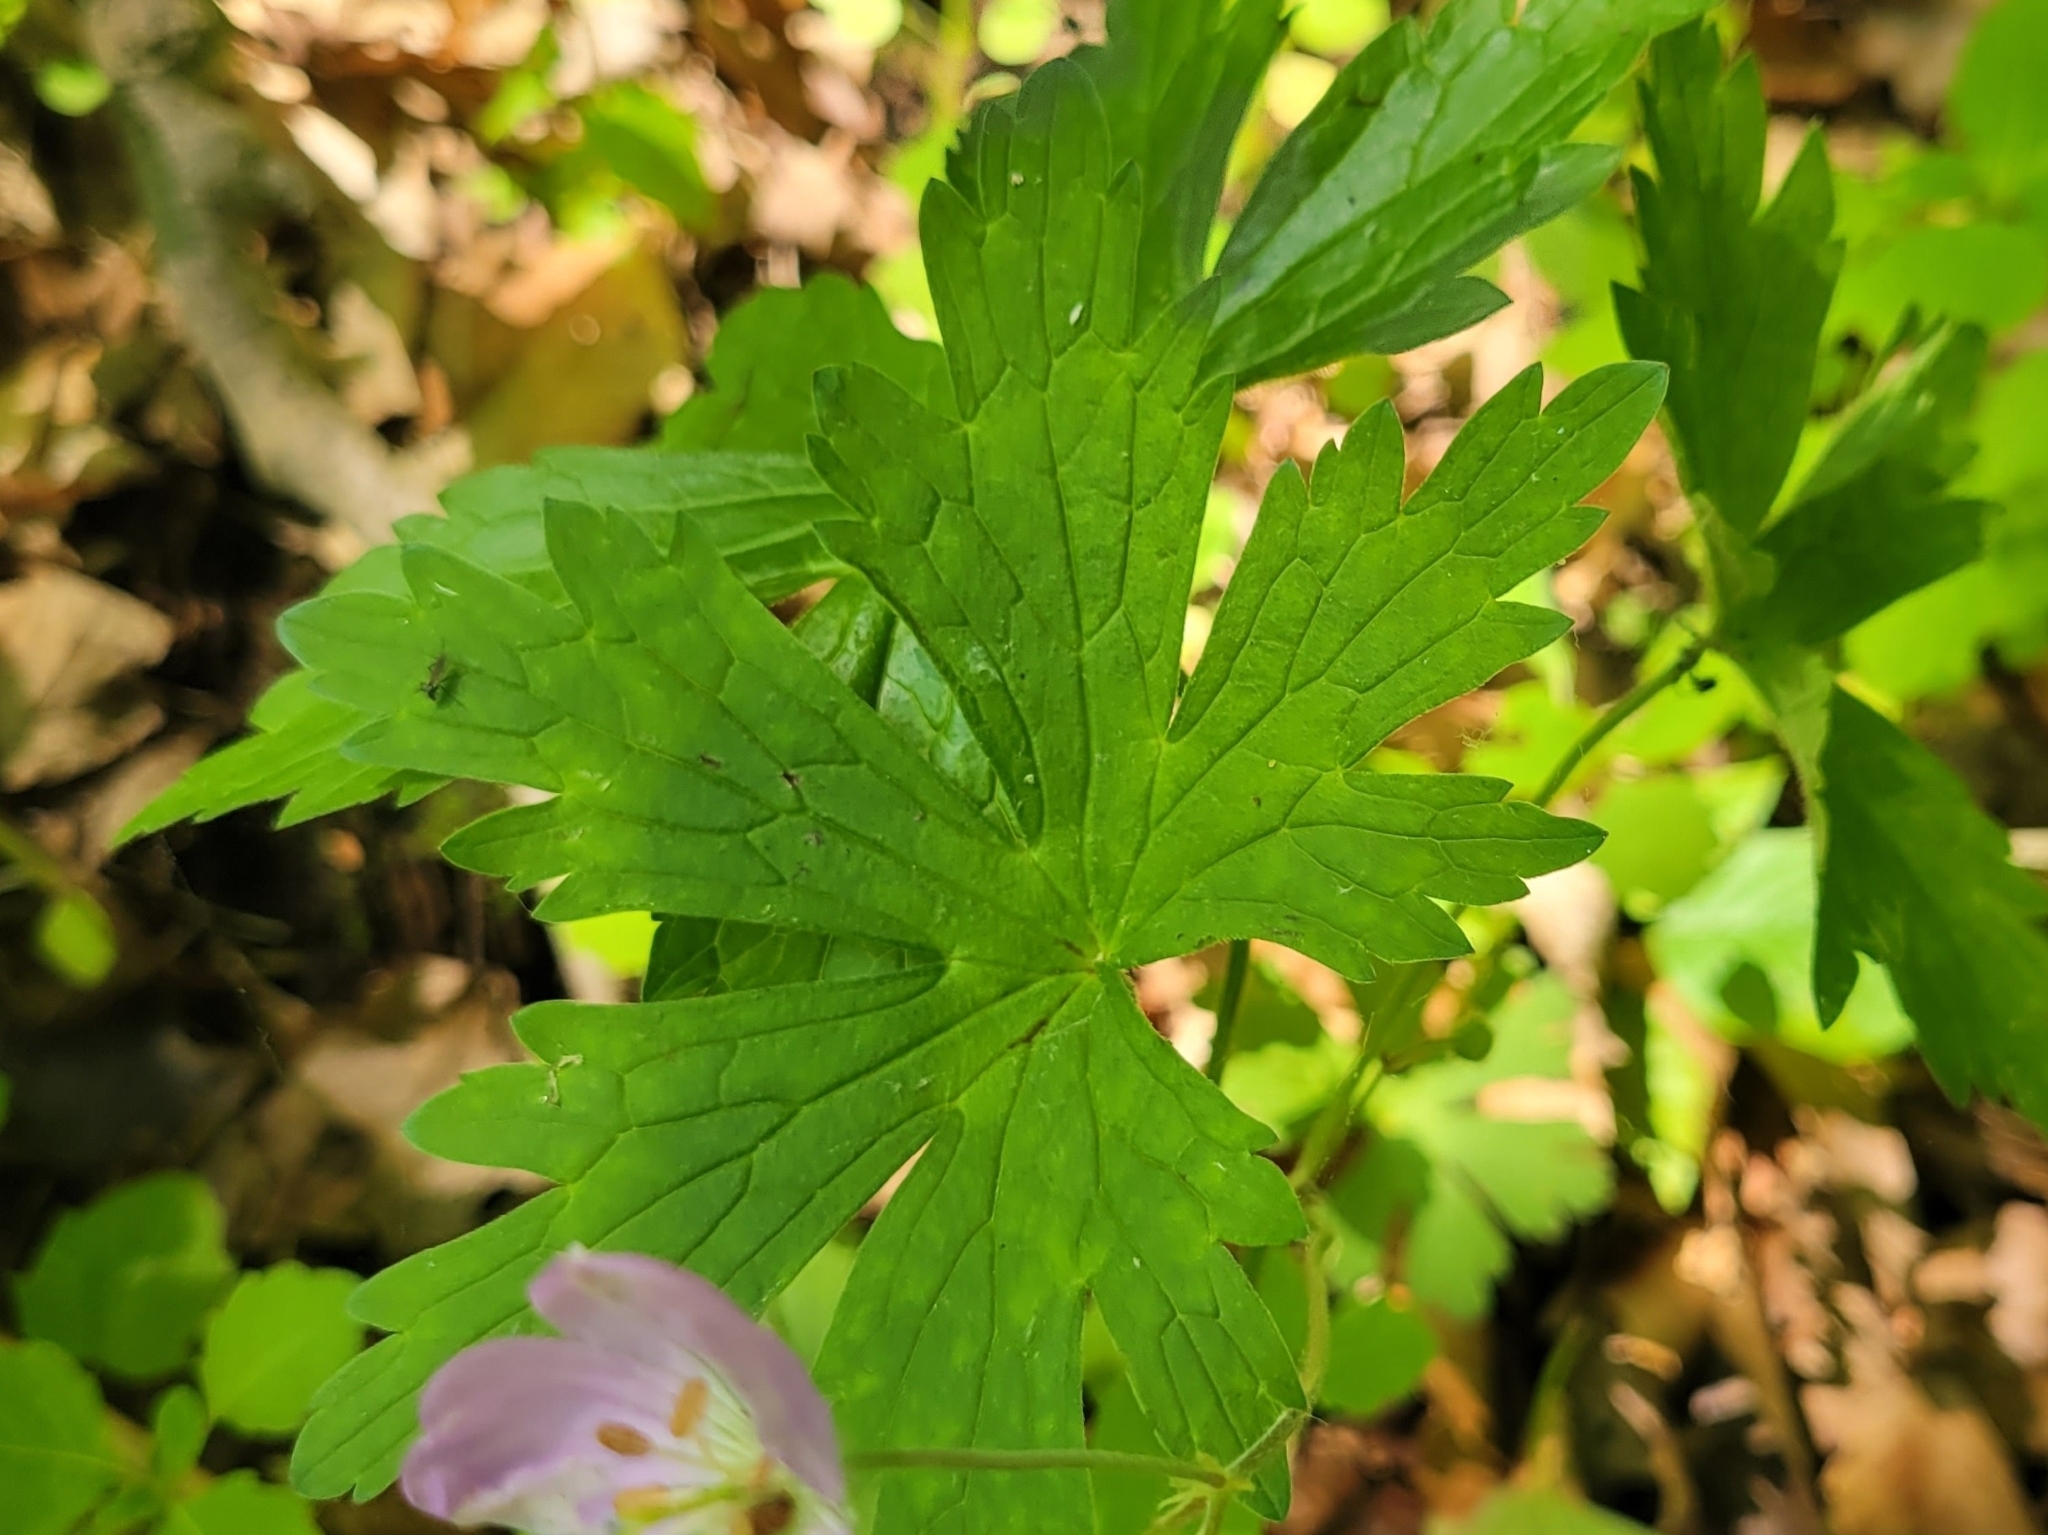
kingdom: Plantae
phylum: Tracheophyta
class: Magnoliopsida
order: Geraniales
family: Geraniaceae
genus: Geranium
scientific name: Geranium maculatum
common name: Spotted geranium
